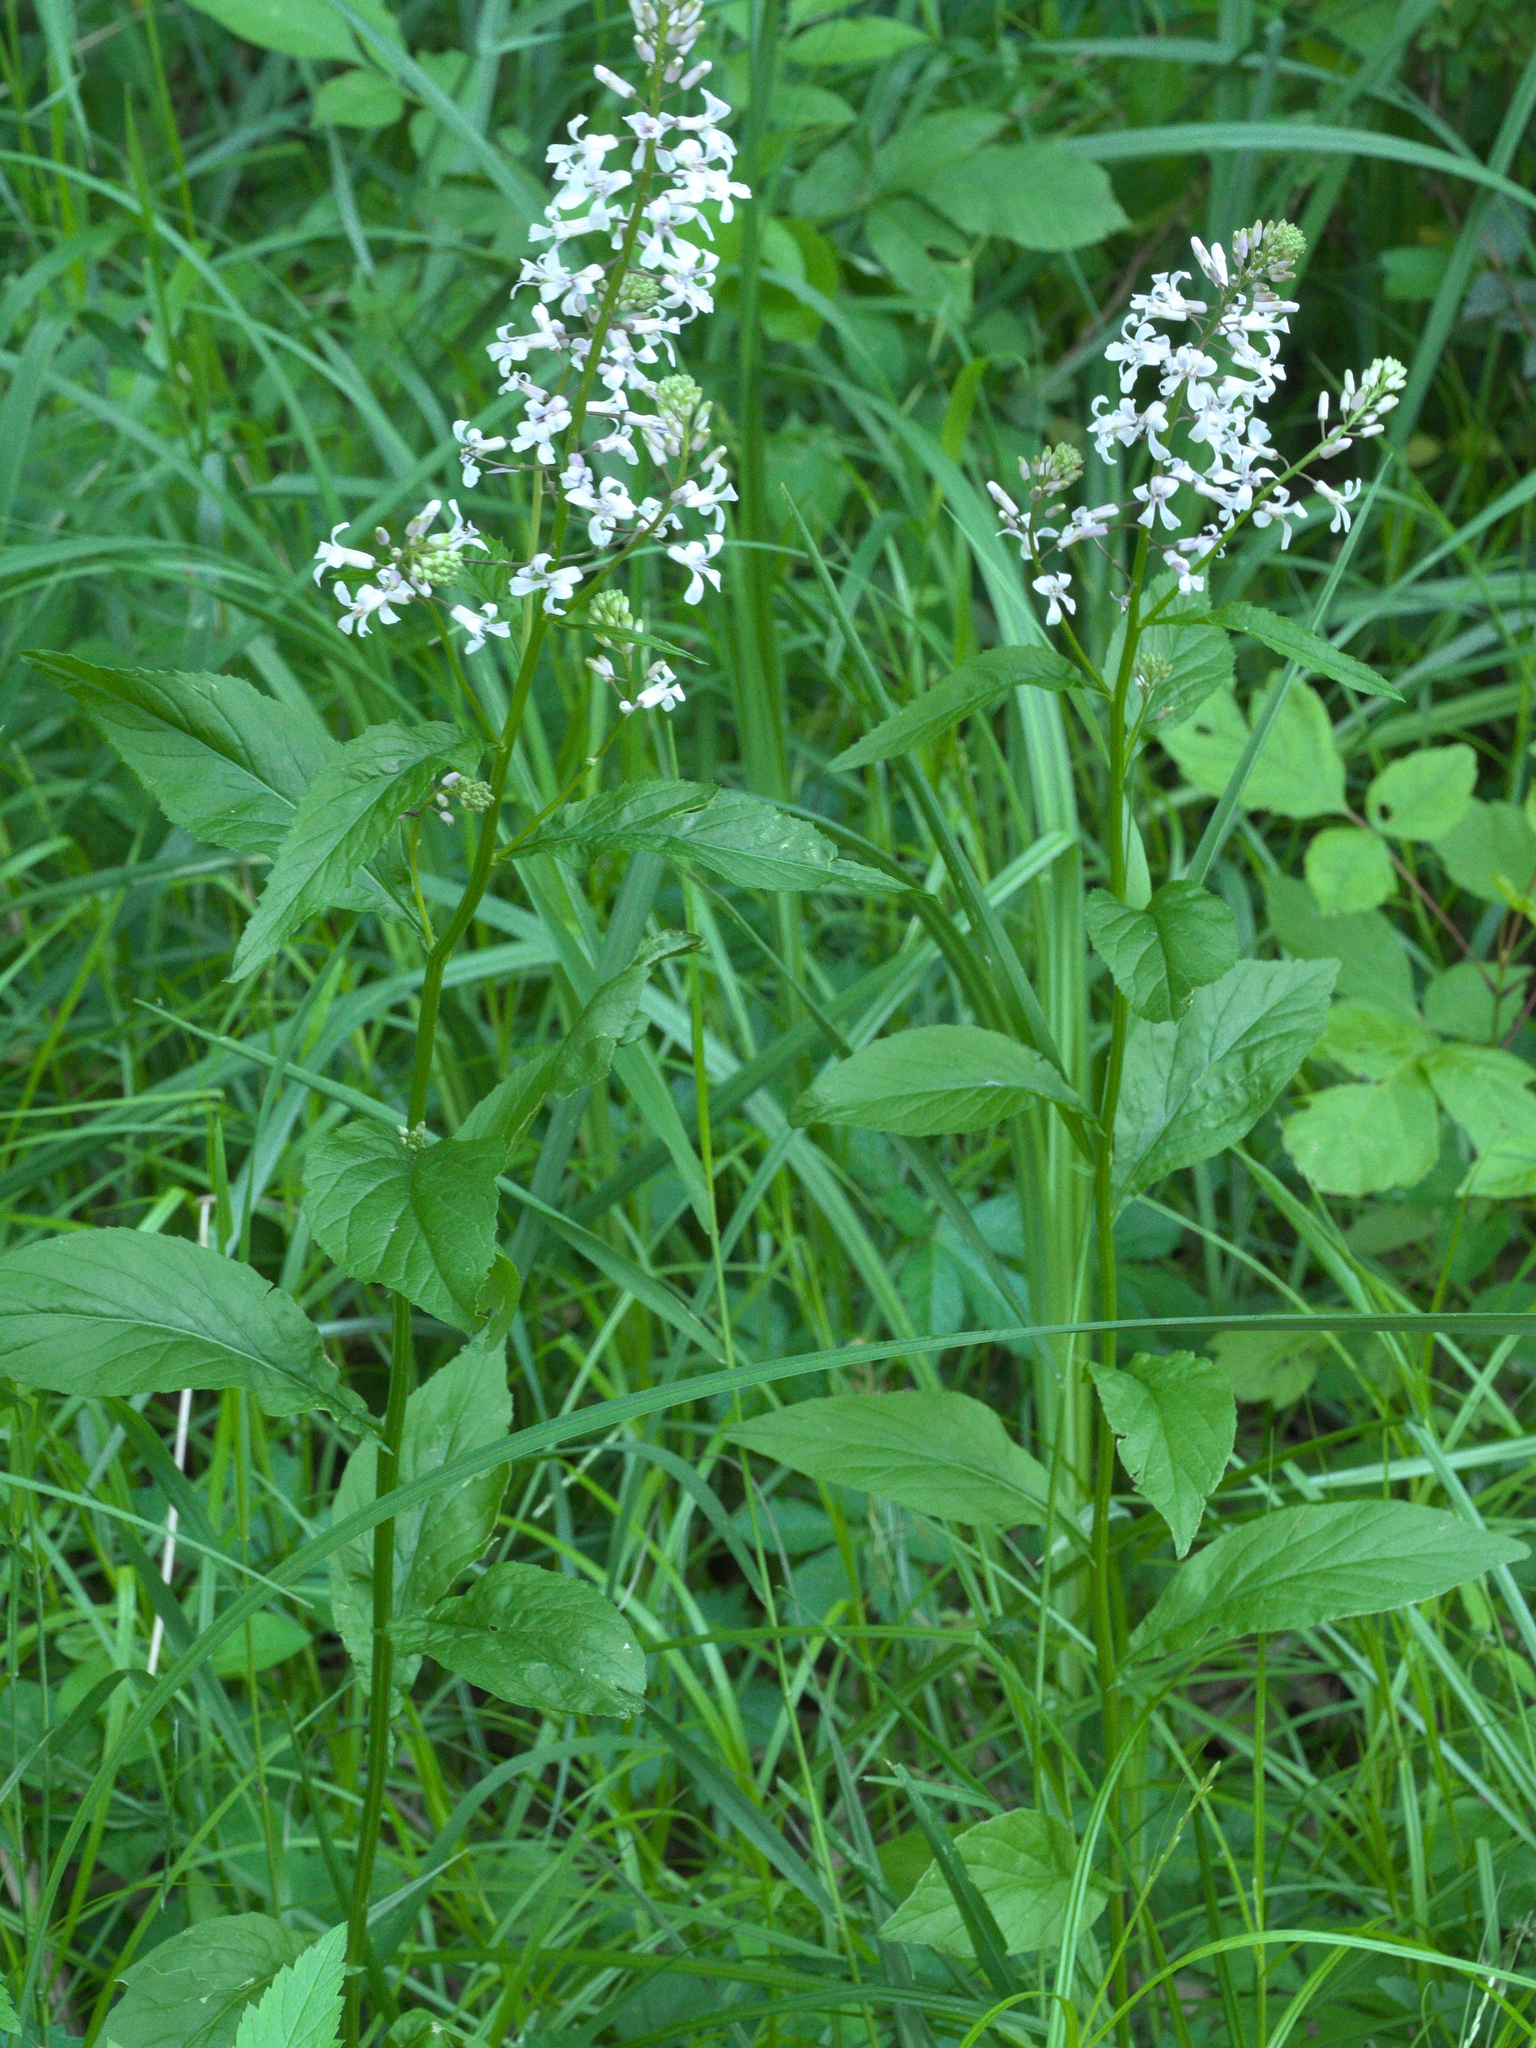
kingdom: Plantae
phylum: Tracheophyta
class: Magnoliopsida
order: Brassicales
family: Brassicaceae
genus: Iodanthus
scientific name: Iodanthus pinnatifidus
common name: Violet rocket
